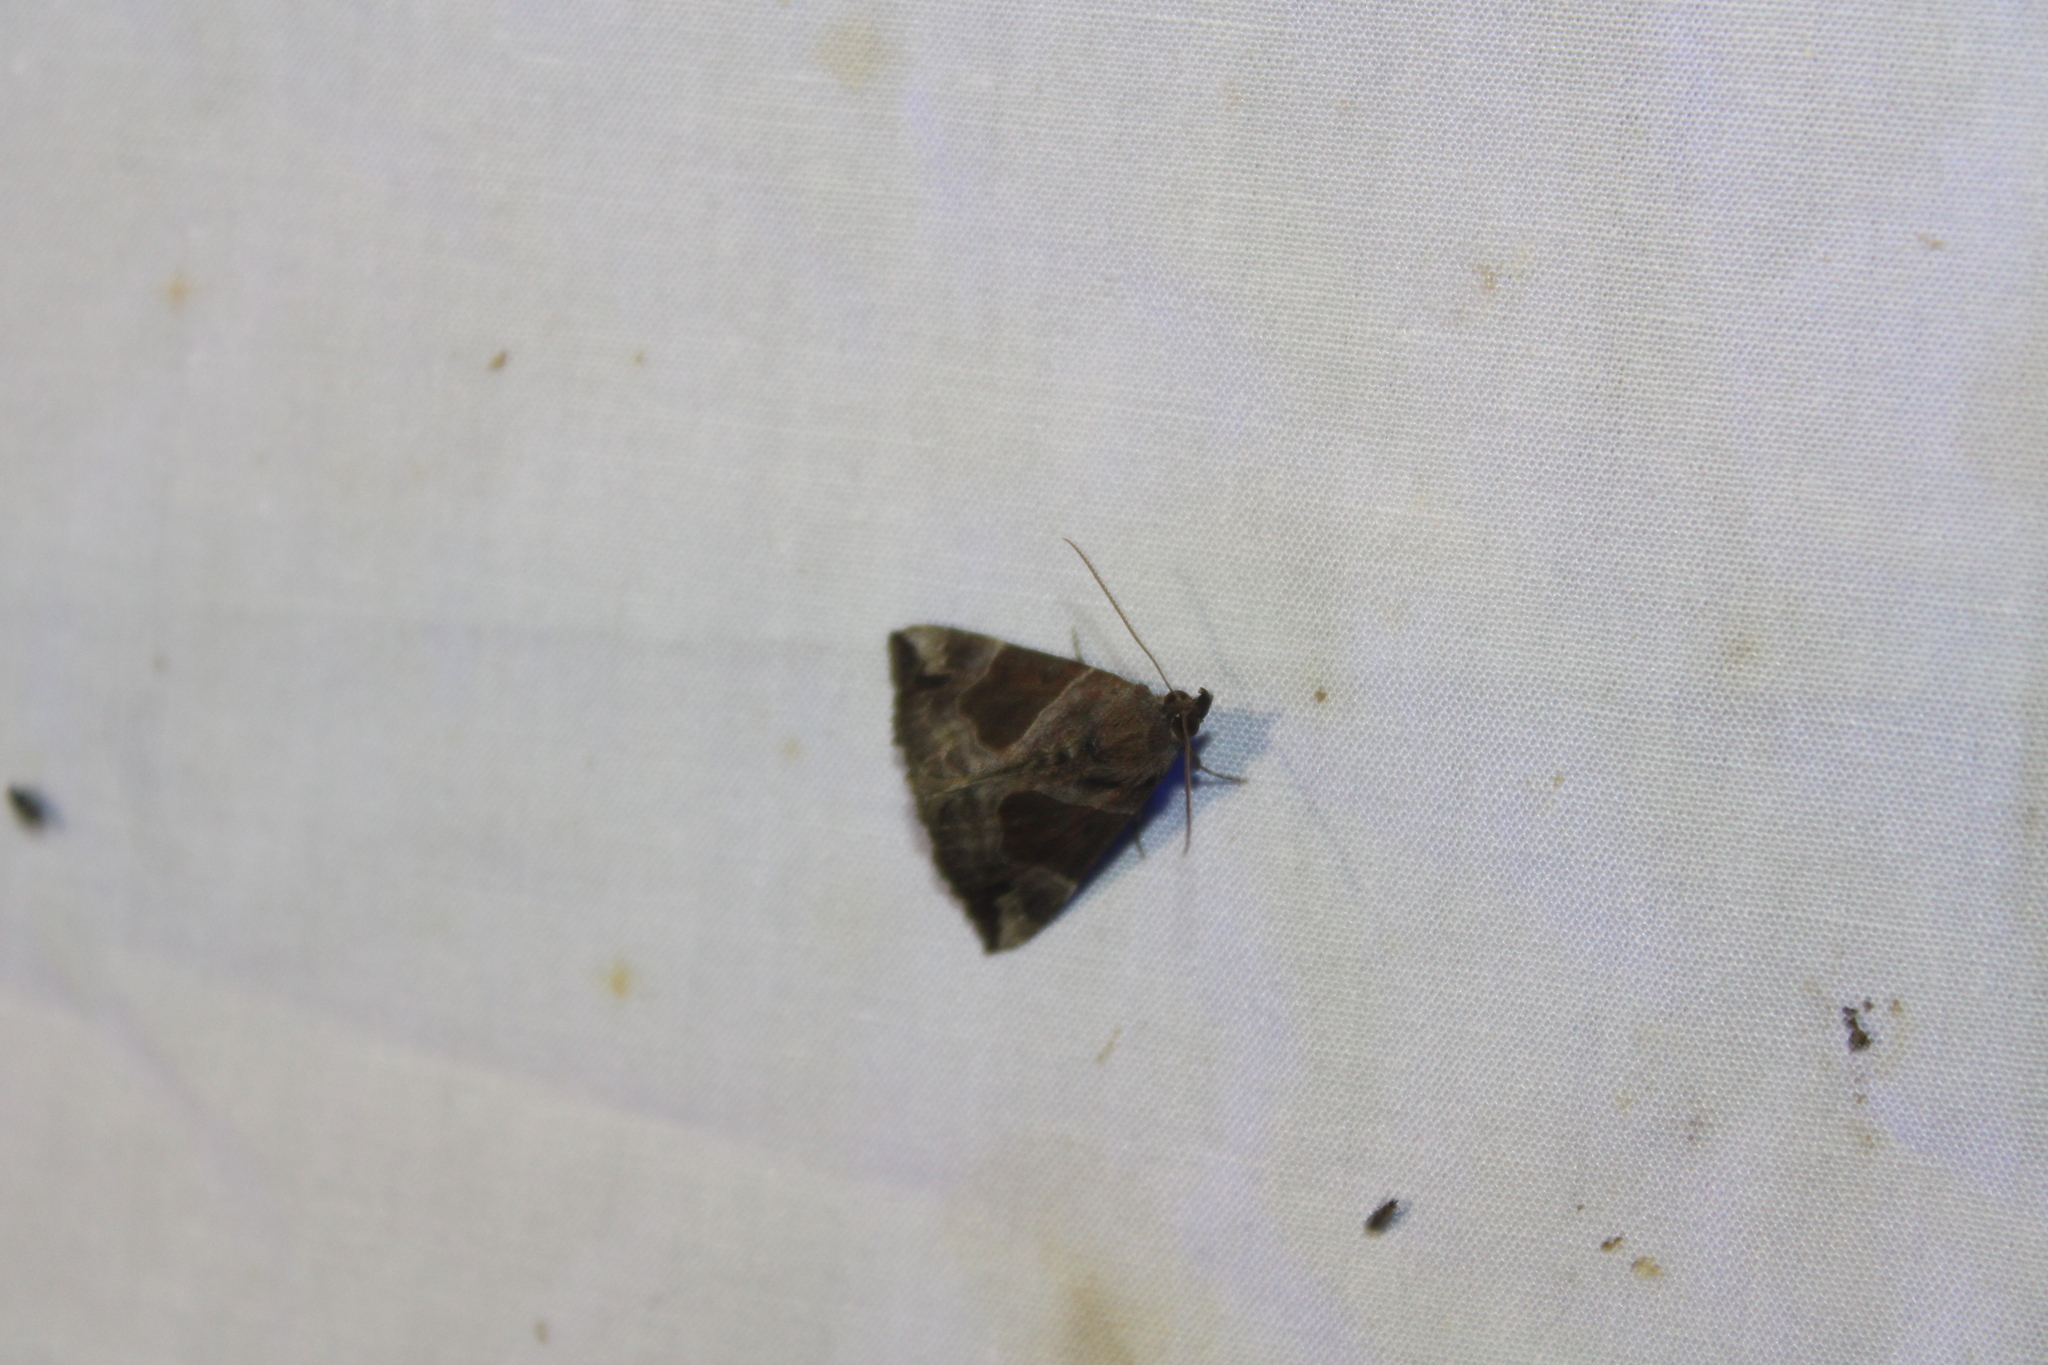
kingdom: Animalia
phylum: Arthropoda
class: Insecta
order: Lepidoptera
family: Erebidae
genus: Hypena
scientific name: Hypena manalis
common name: Flowing-line bomolocha moth
